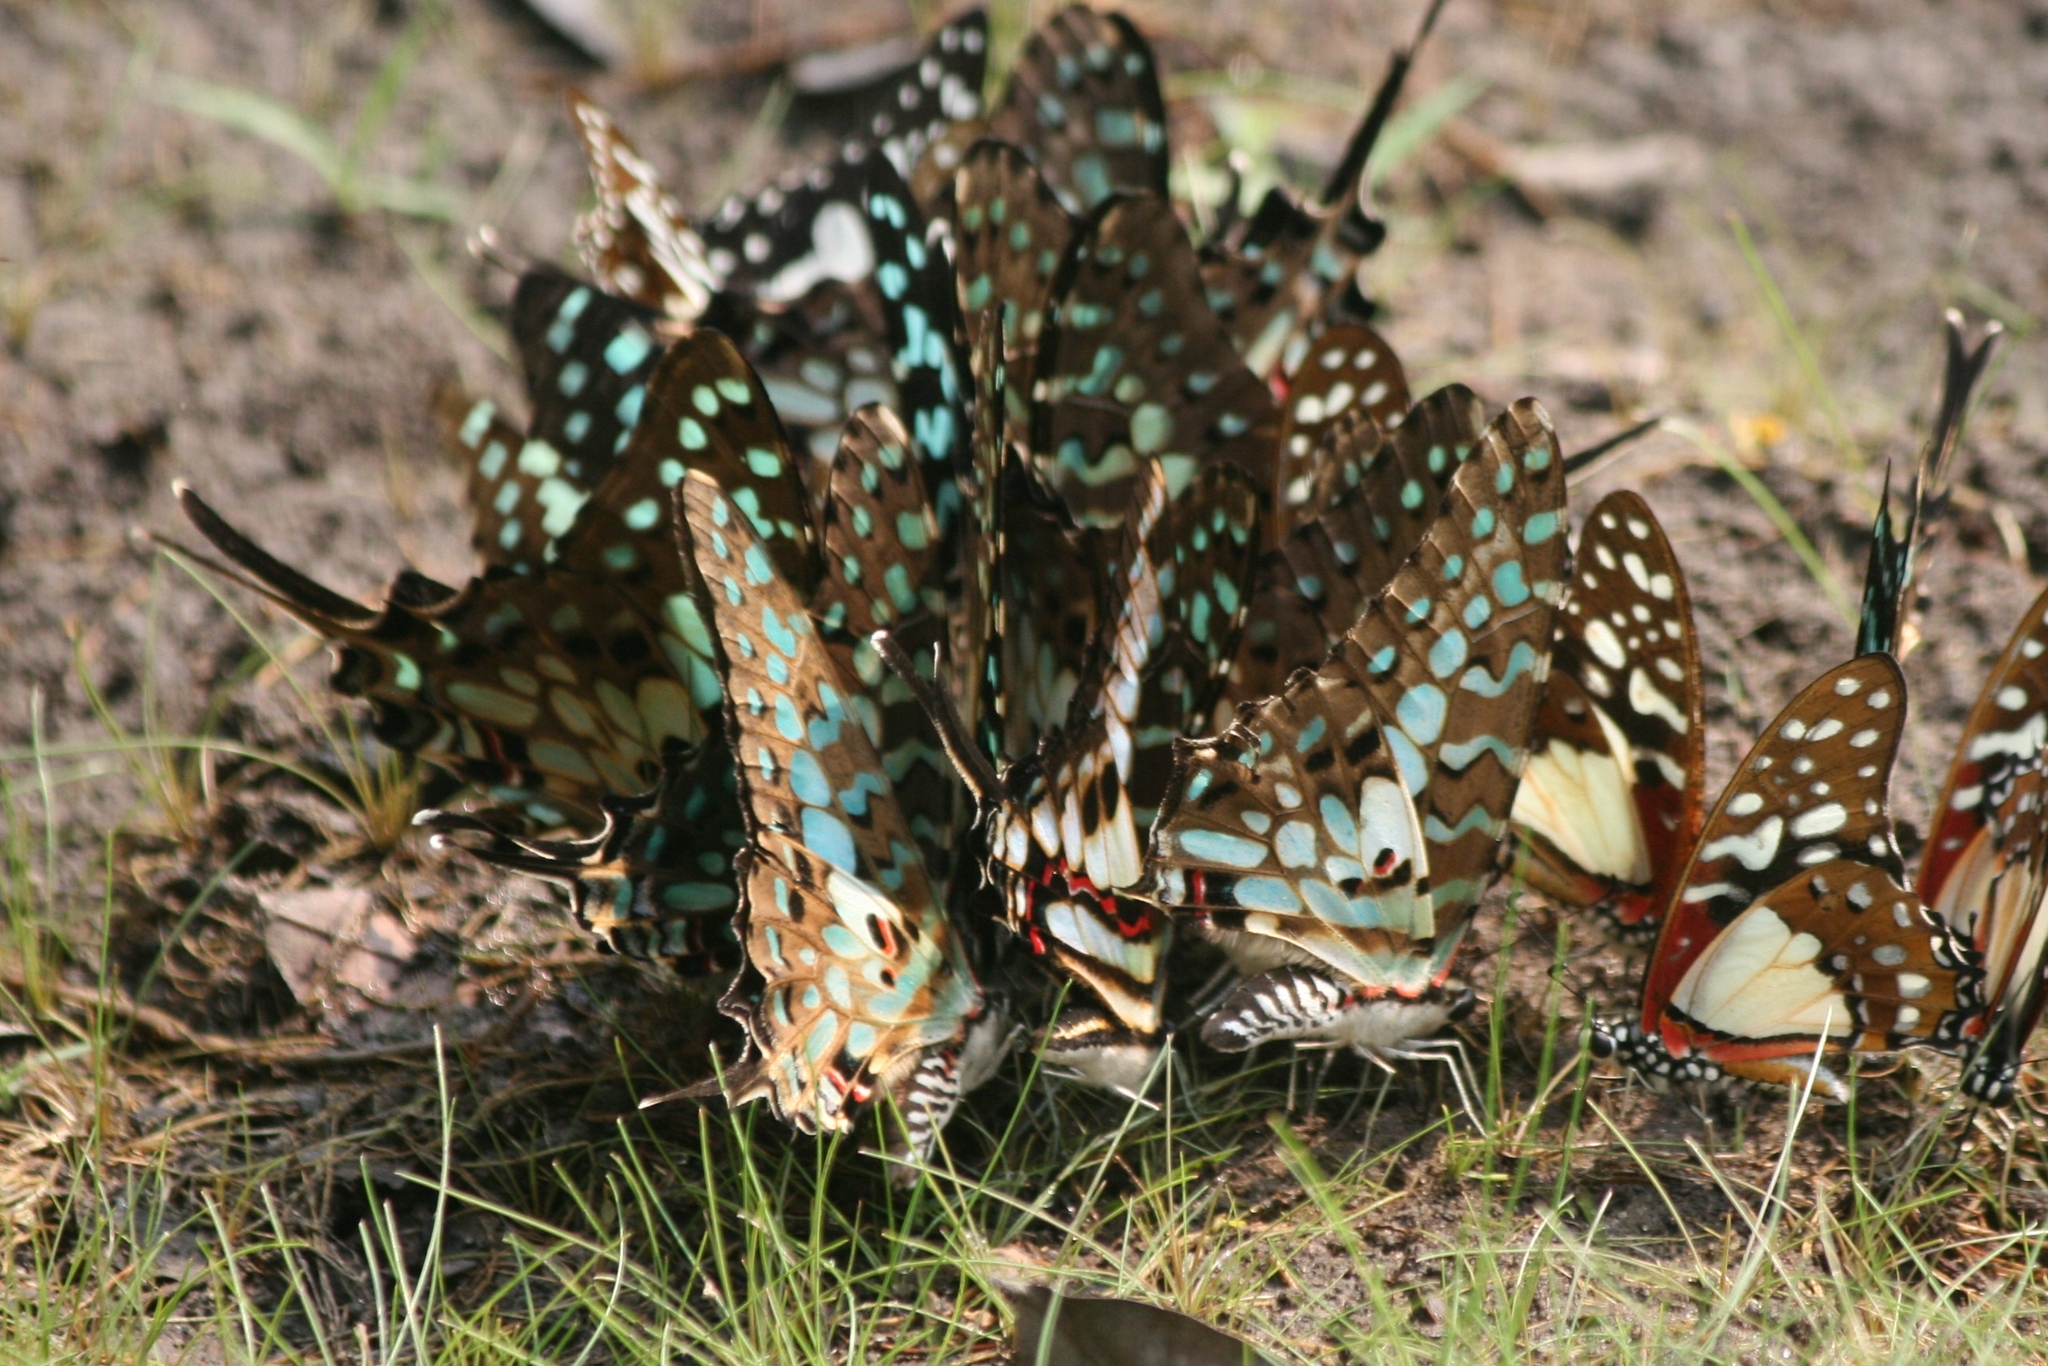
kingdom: Animalia
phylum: Arthropoda
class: Insecta
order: Lepidoptera
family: Papilionidae
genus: Graphium
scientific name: Graphium antheus
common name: Large striped swordtail
